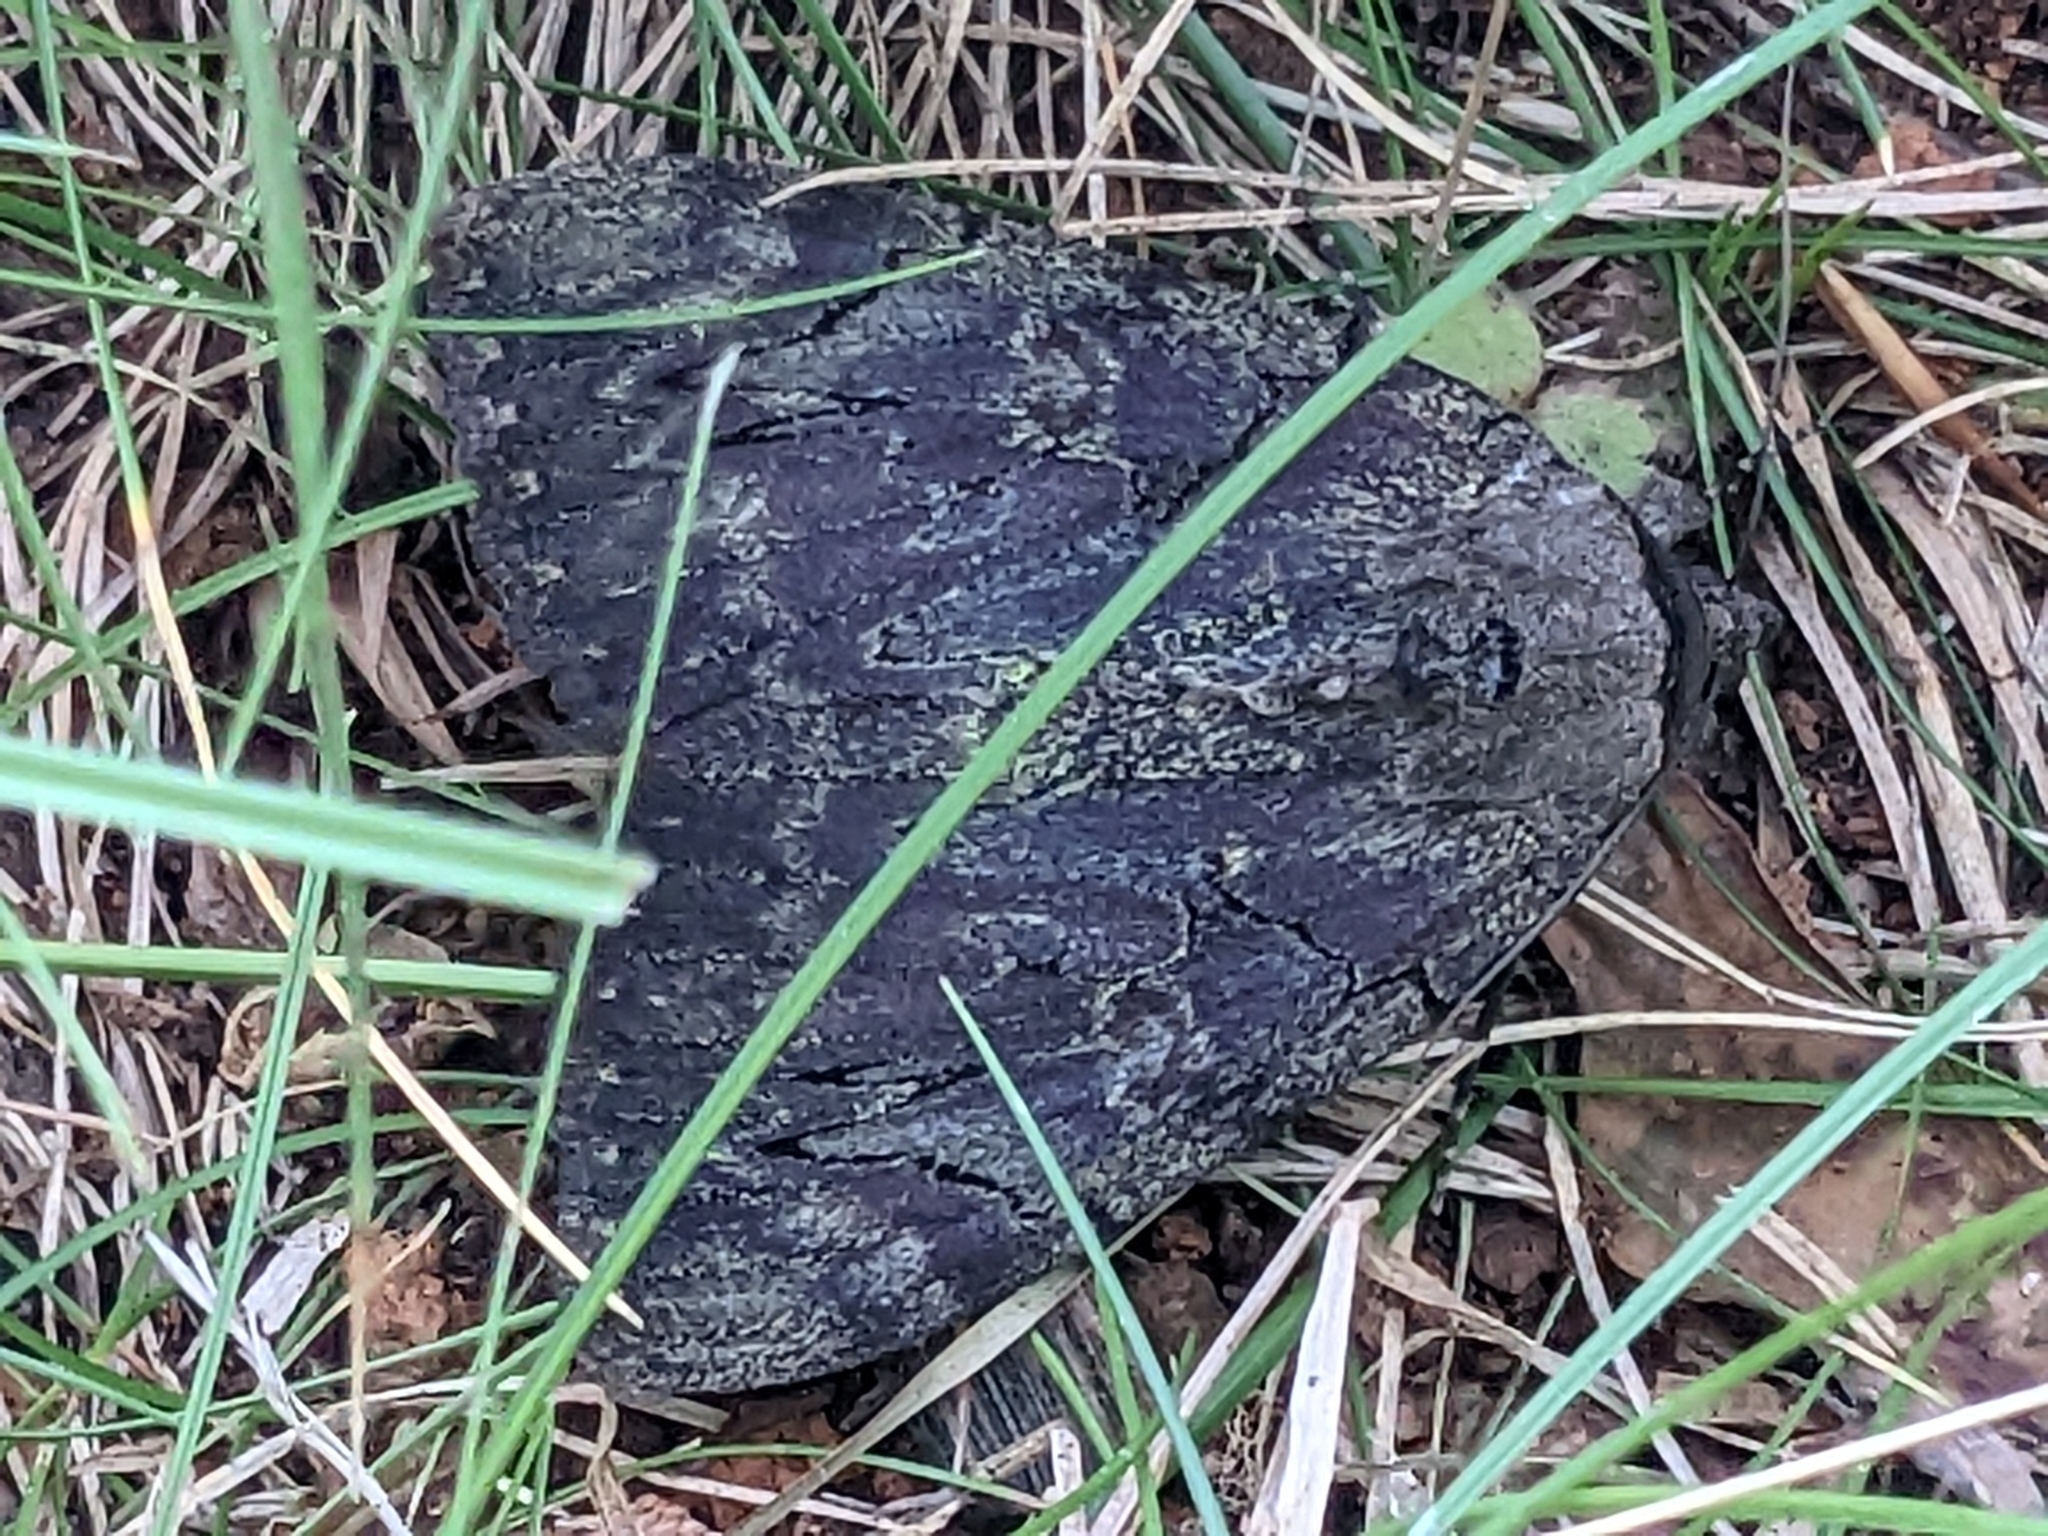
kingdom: Animalia
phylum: Arthropoda
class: Insecta
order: Lepidoptera
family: Erebidae
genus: Catocala
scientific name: Catocala cara
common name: Darling underwing
